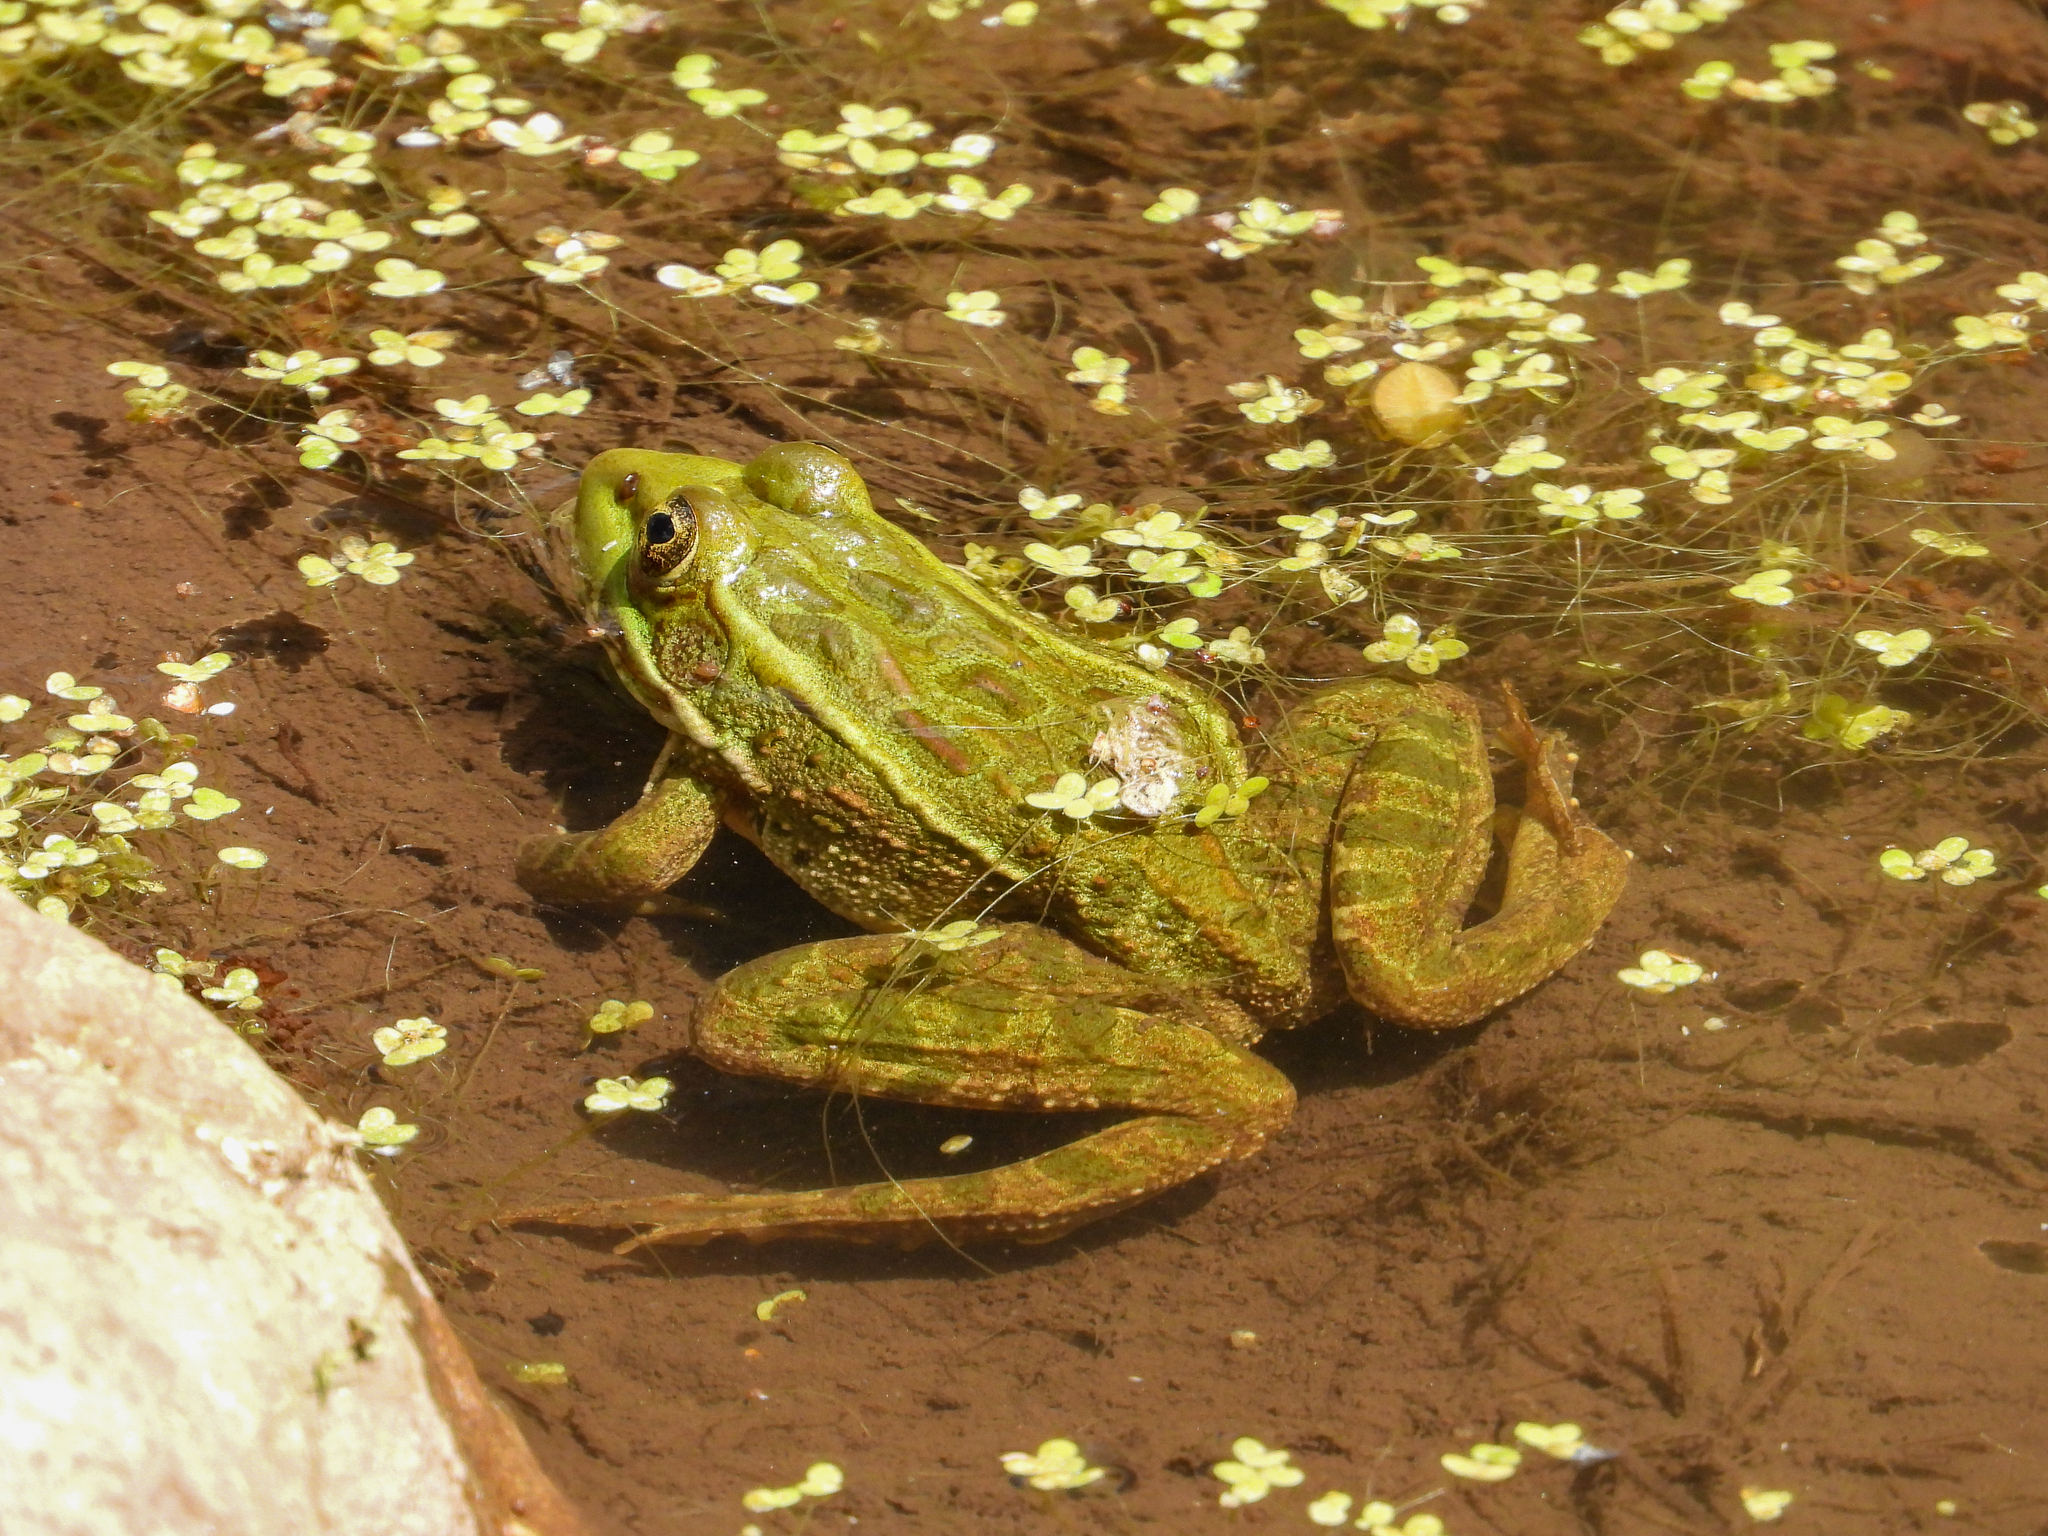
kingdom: Animalia
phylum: Chordata
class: Amphibia
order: Anura
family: Ranidae
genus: Lithobates
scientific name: Lithobates chiricahuensis
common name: Chiricahua leopard frog
